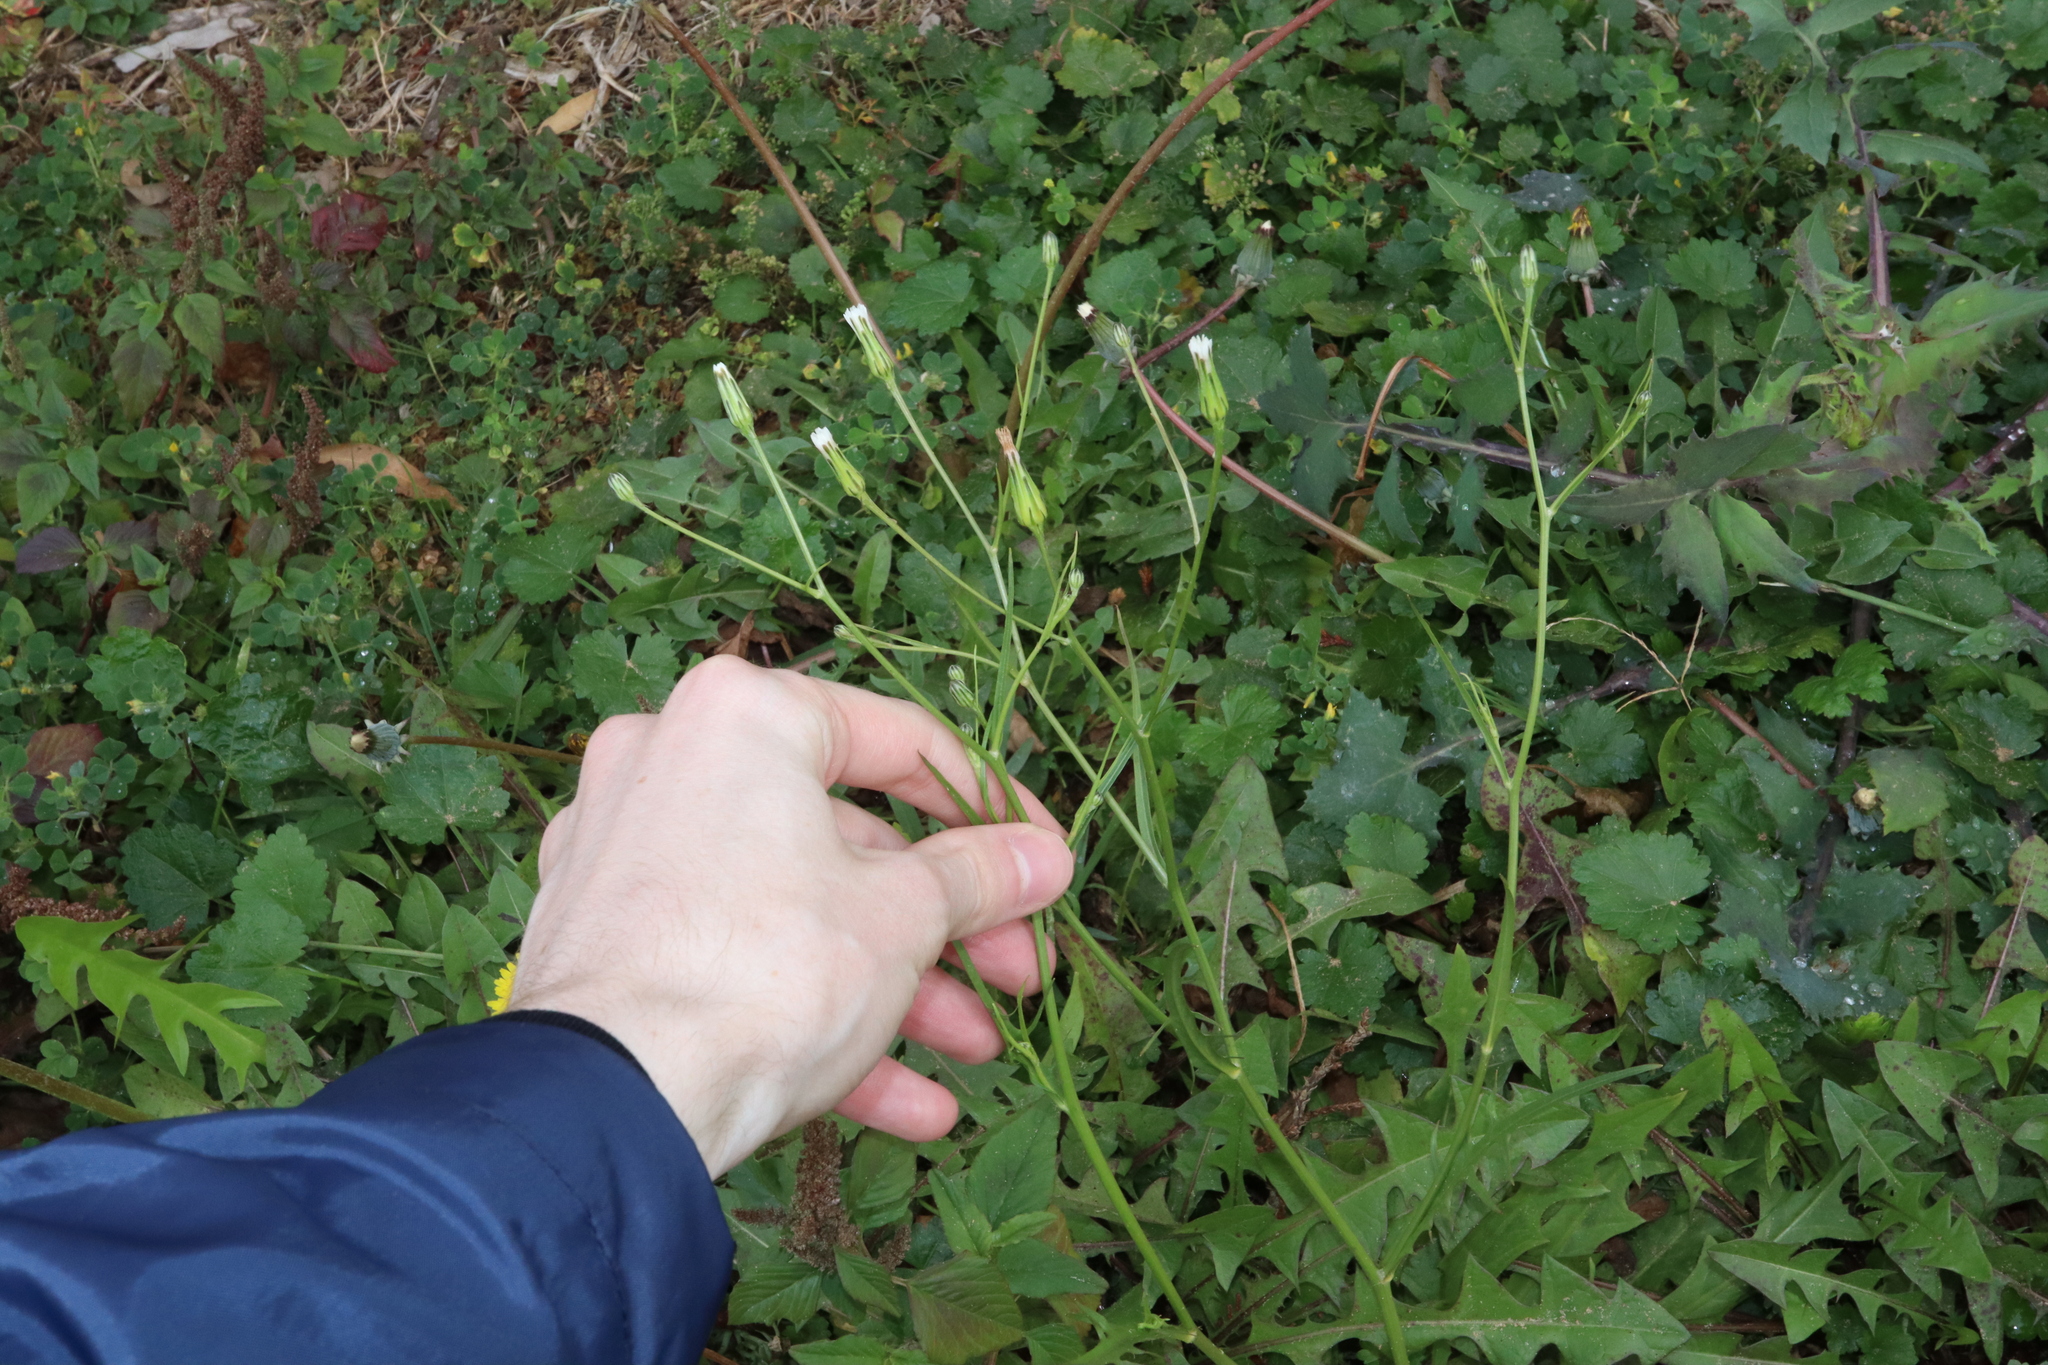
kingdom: Plantae
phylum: Tracheophyta
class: Magnoliopsida
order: Asterales
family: Asteraceae
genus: Hypochaeris
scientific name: Hypochaeris albiflora
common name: White flatweed
